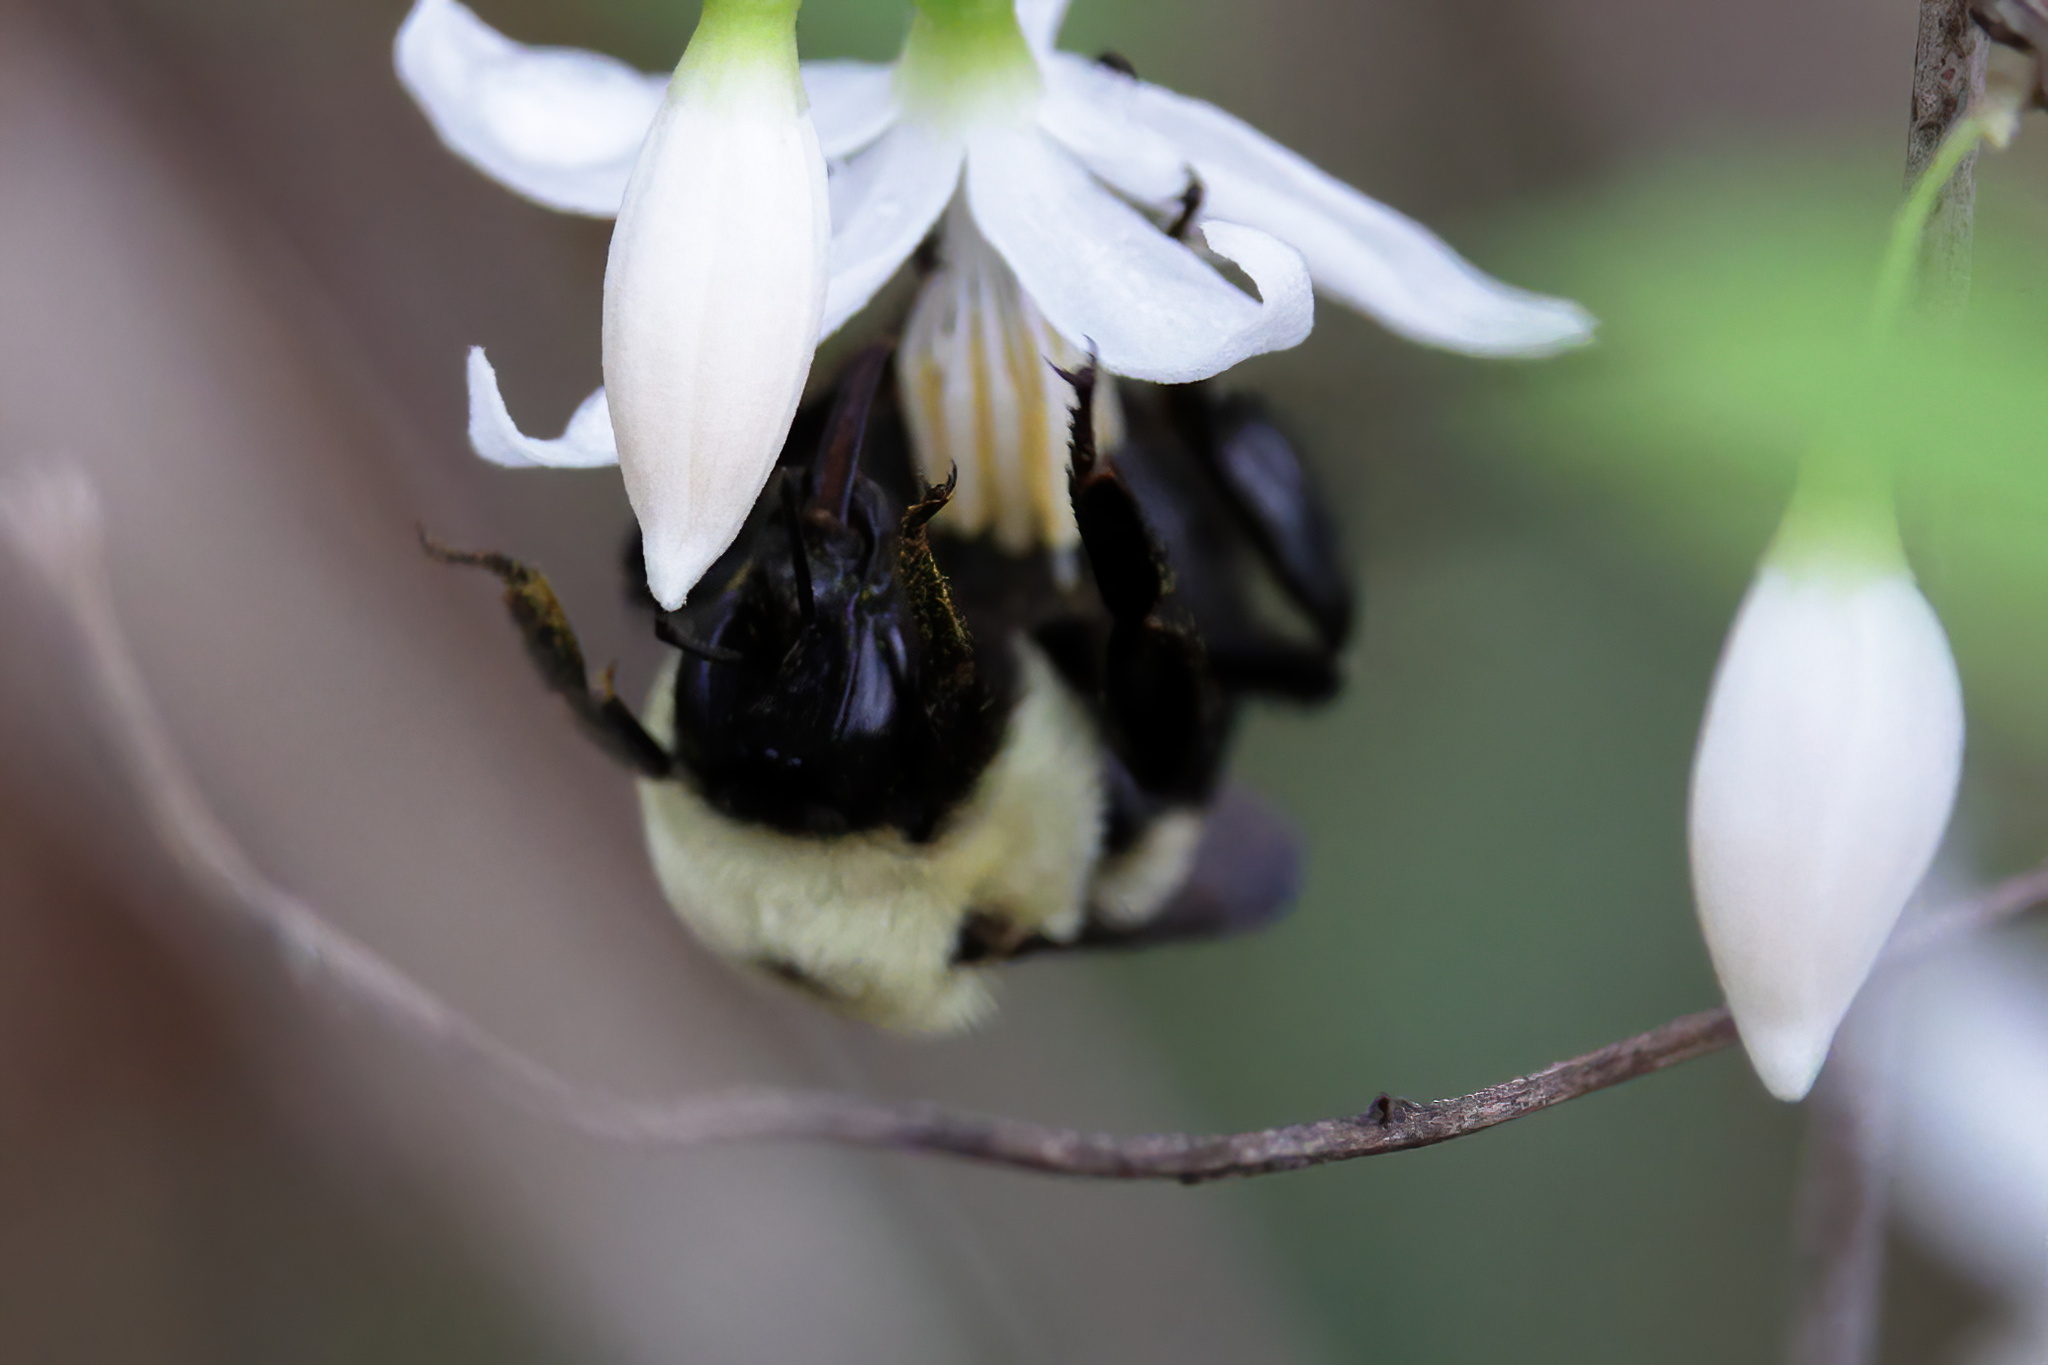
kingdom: Animalia
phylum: Arthropoda
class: Insecta
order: Hymenoptera
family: Apidae
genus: Bombus
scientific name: Bombus griseocollis
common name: Brown-belted bumble bee
